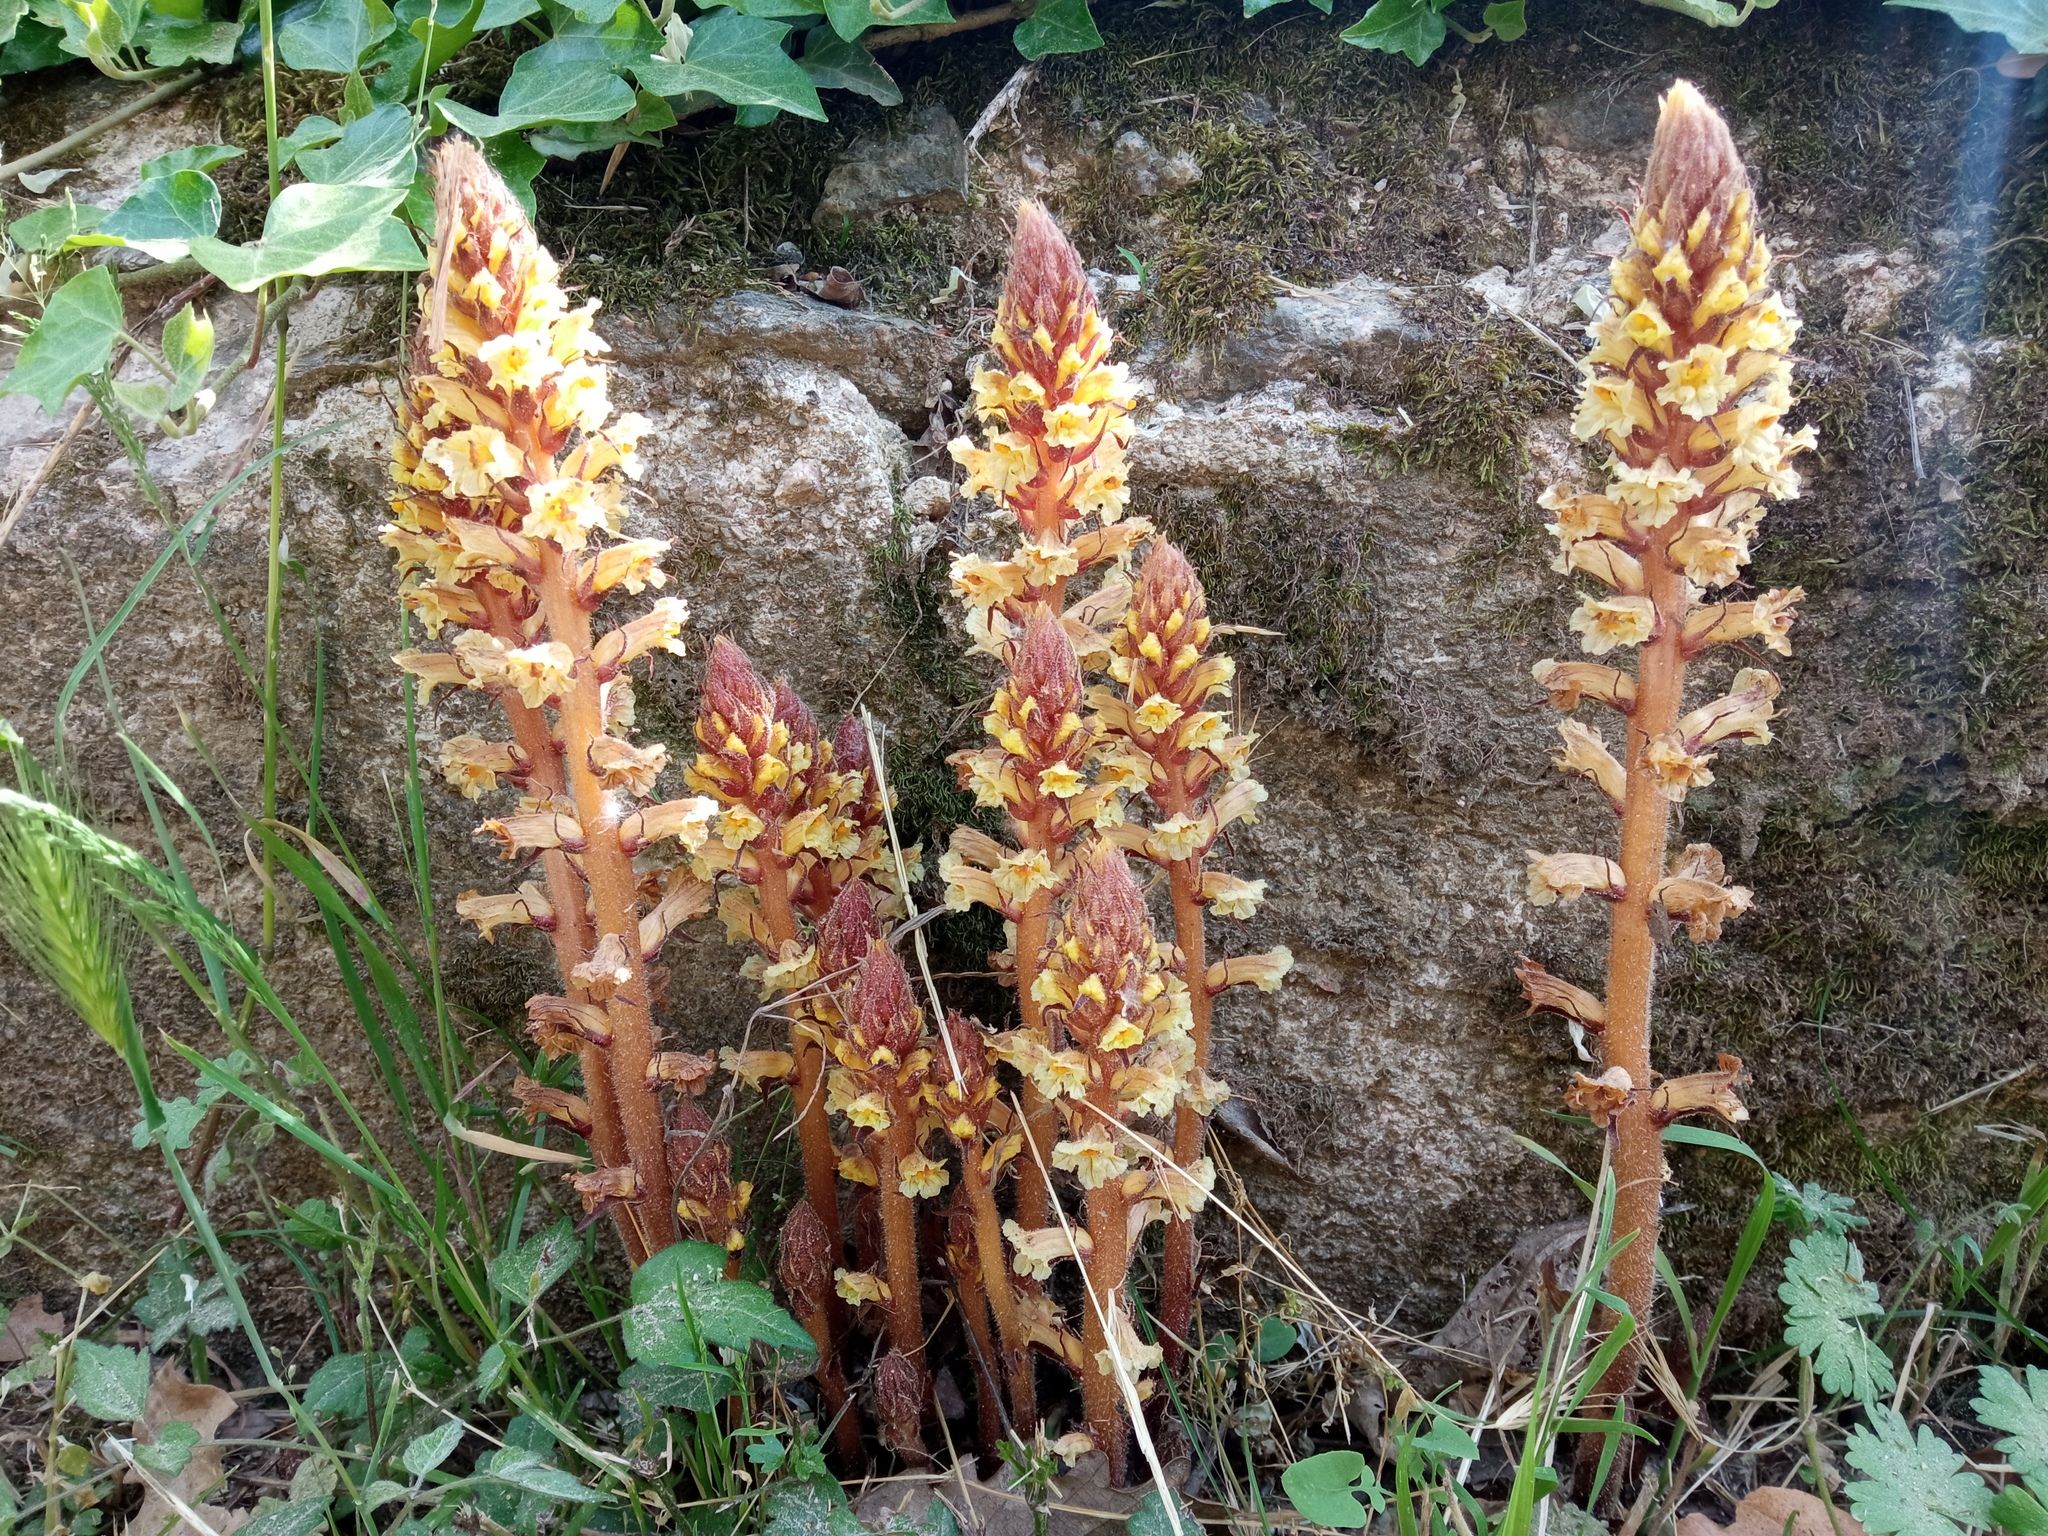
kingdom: Plantae
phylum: Tracheophyta
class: Magnoliopsida
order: Lamiales
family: Orobanchaceae
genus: Orobanche
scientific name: Orobanche hederae
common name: Ivy broomrape
